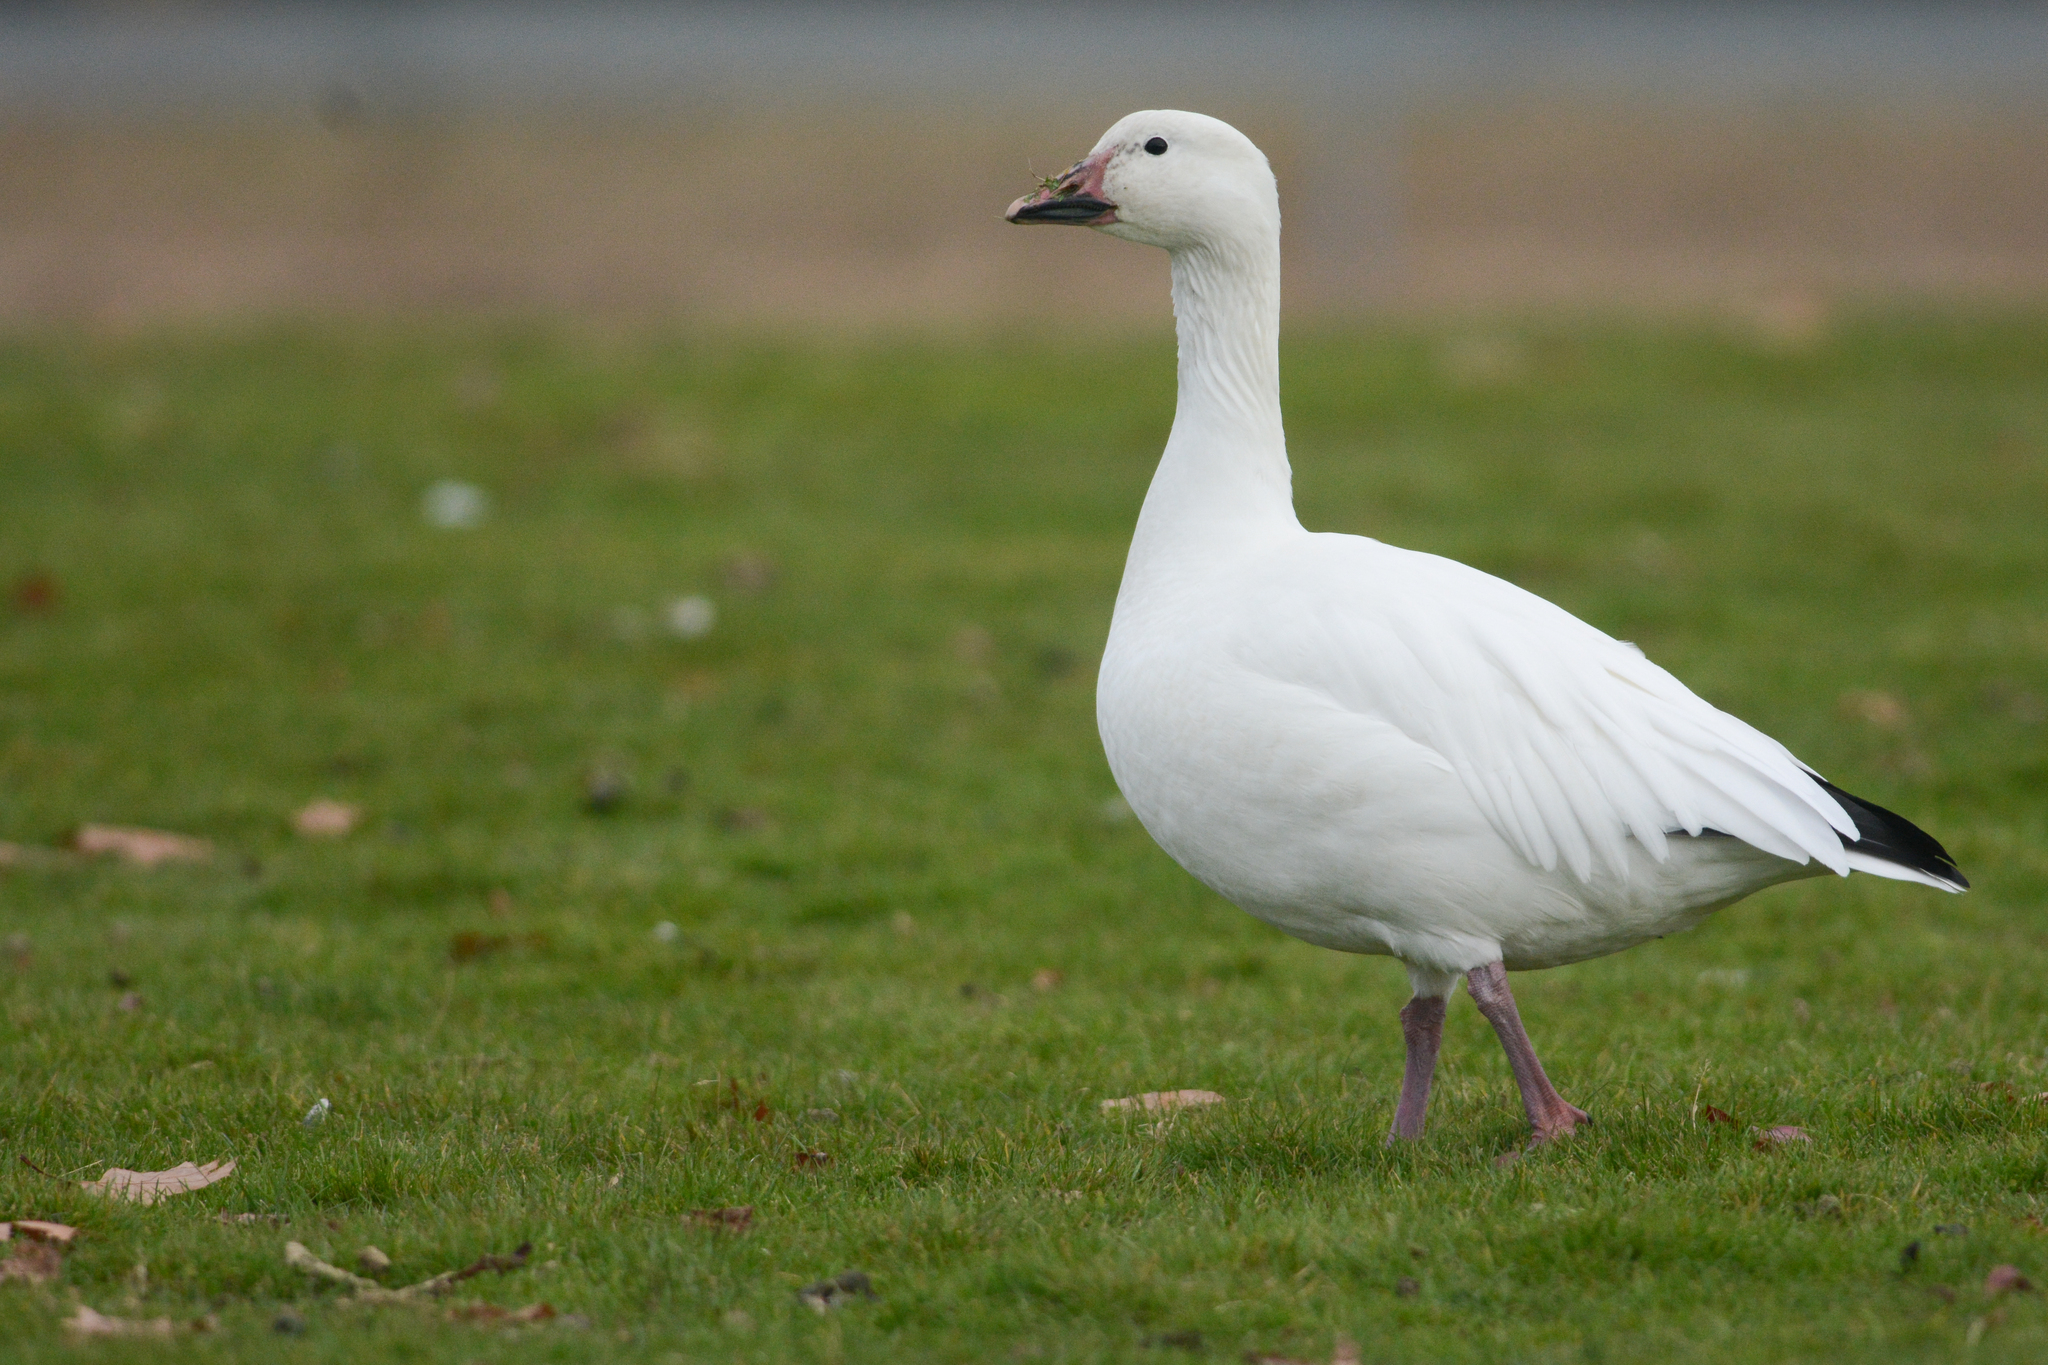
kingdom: Animalia
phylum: Chordata
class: Aves
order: Anseriformes
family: Anatidae
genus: Anser
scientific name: Anser caerulescens
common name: Snow goose
